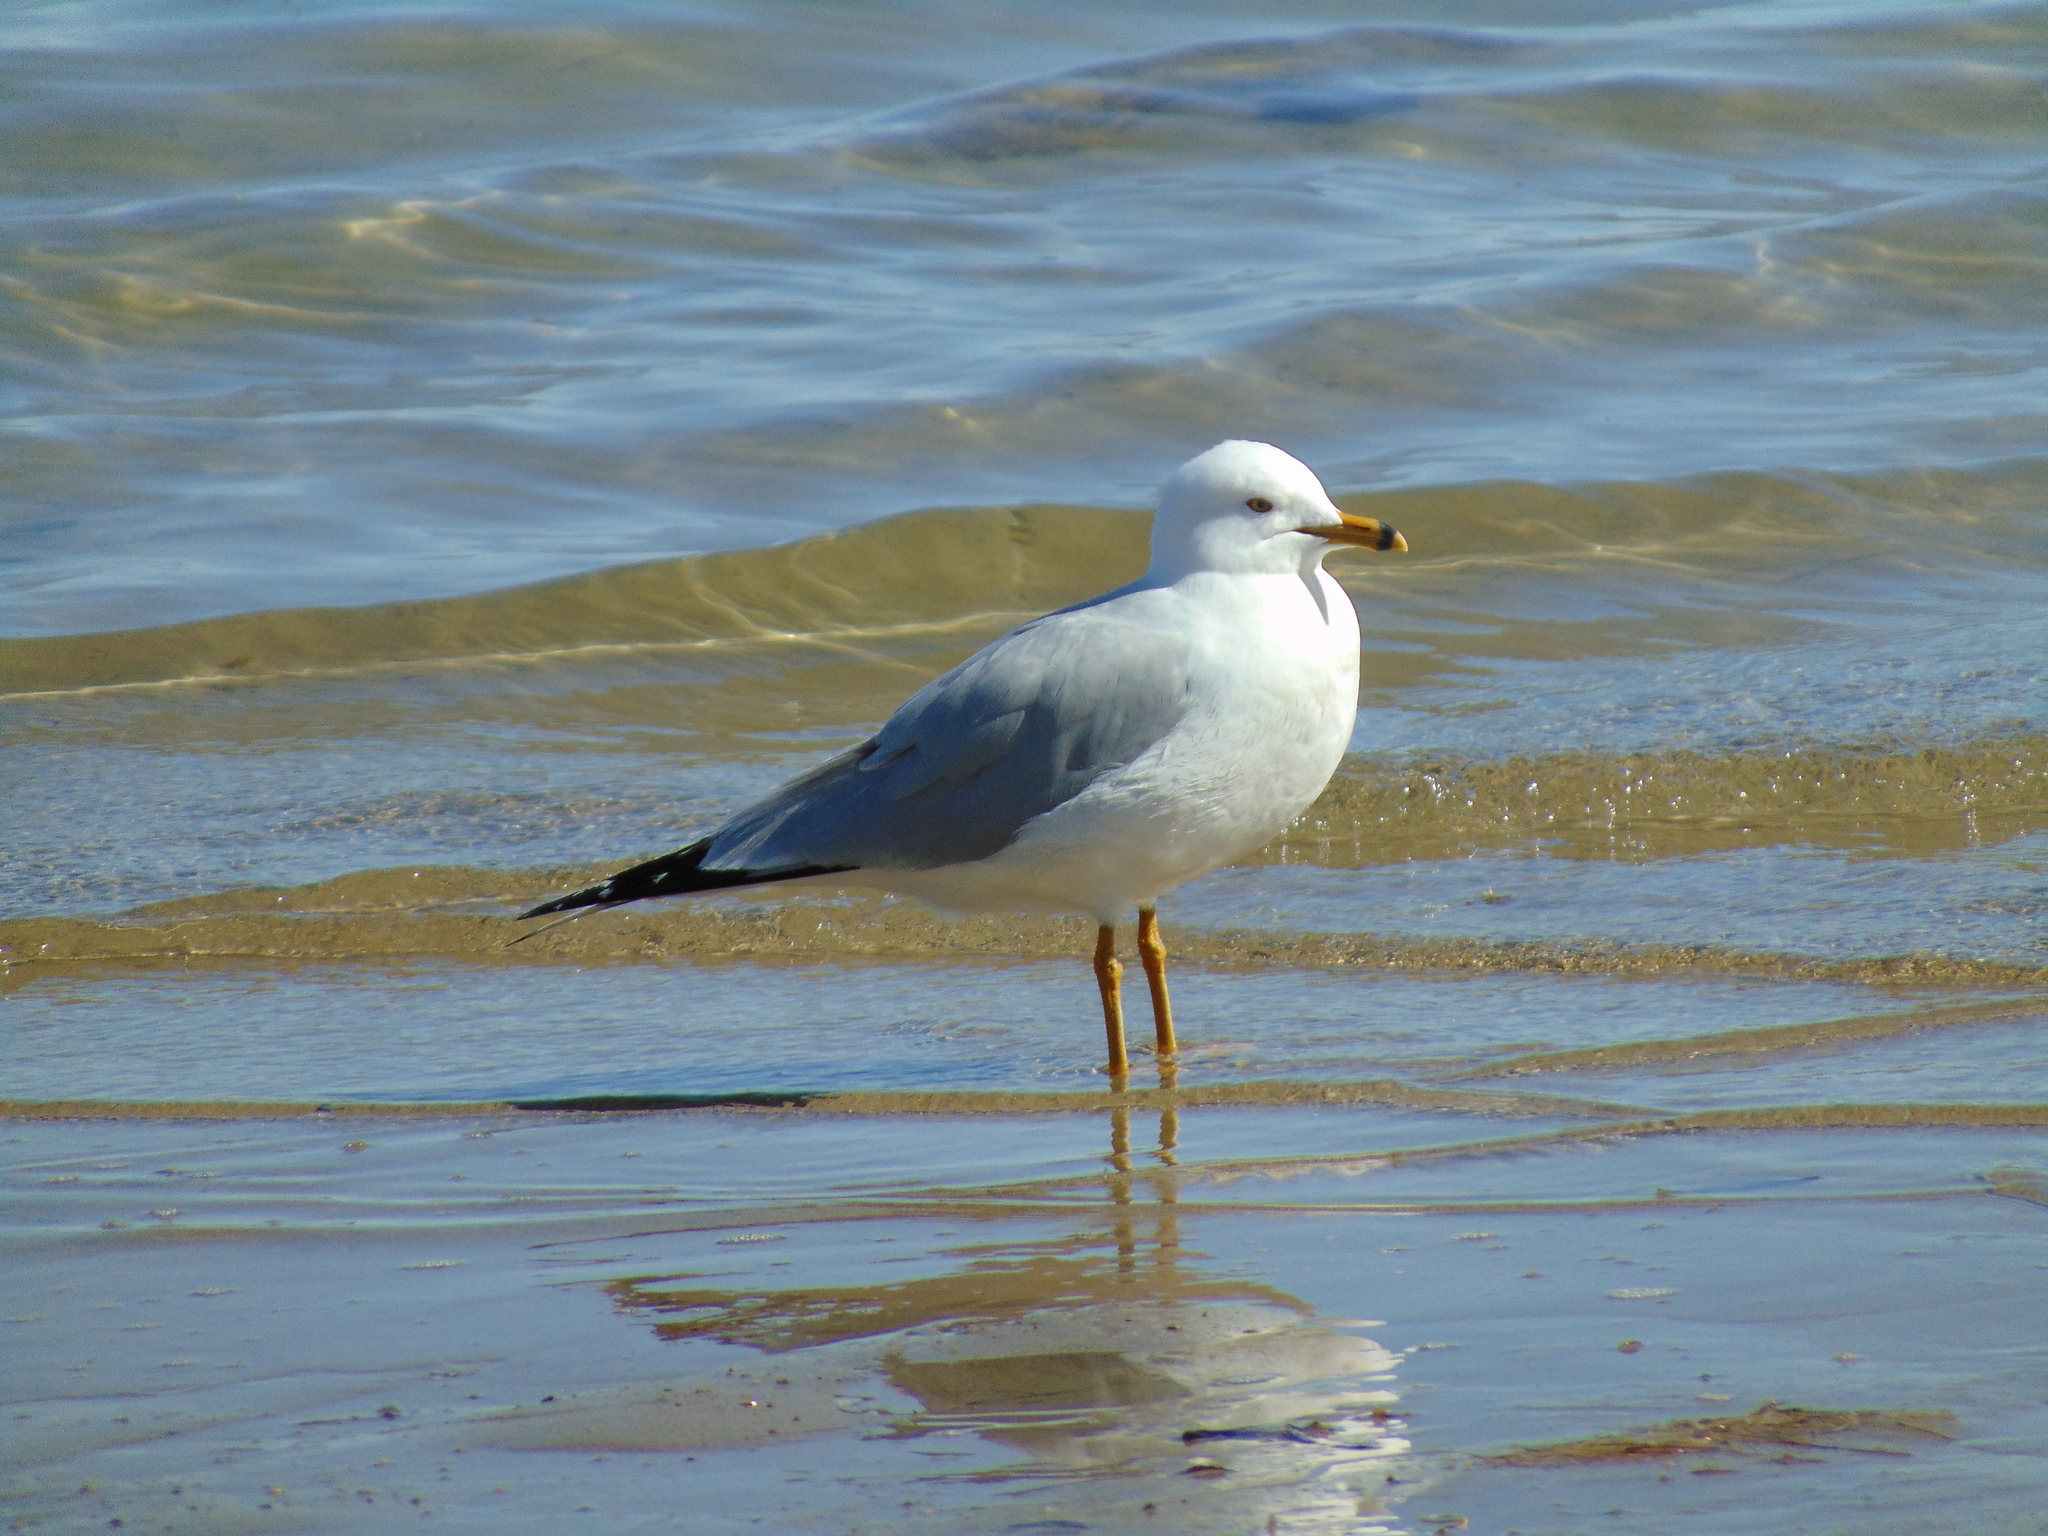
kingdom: Animalia
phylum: Chordata
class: Aves
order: Charadriiformes
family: Laridae
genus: Larus
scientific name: Larus delawarensis
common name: Ring-billed gull
